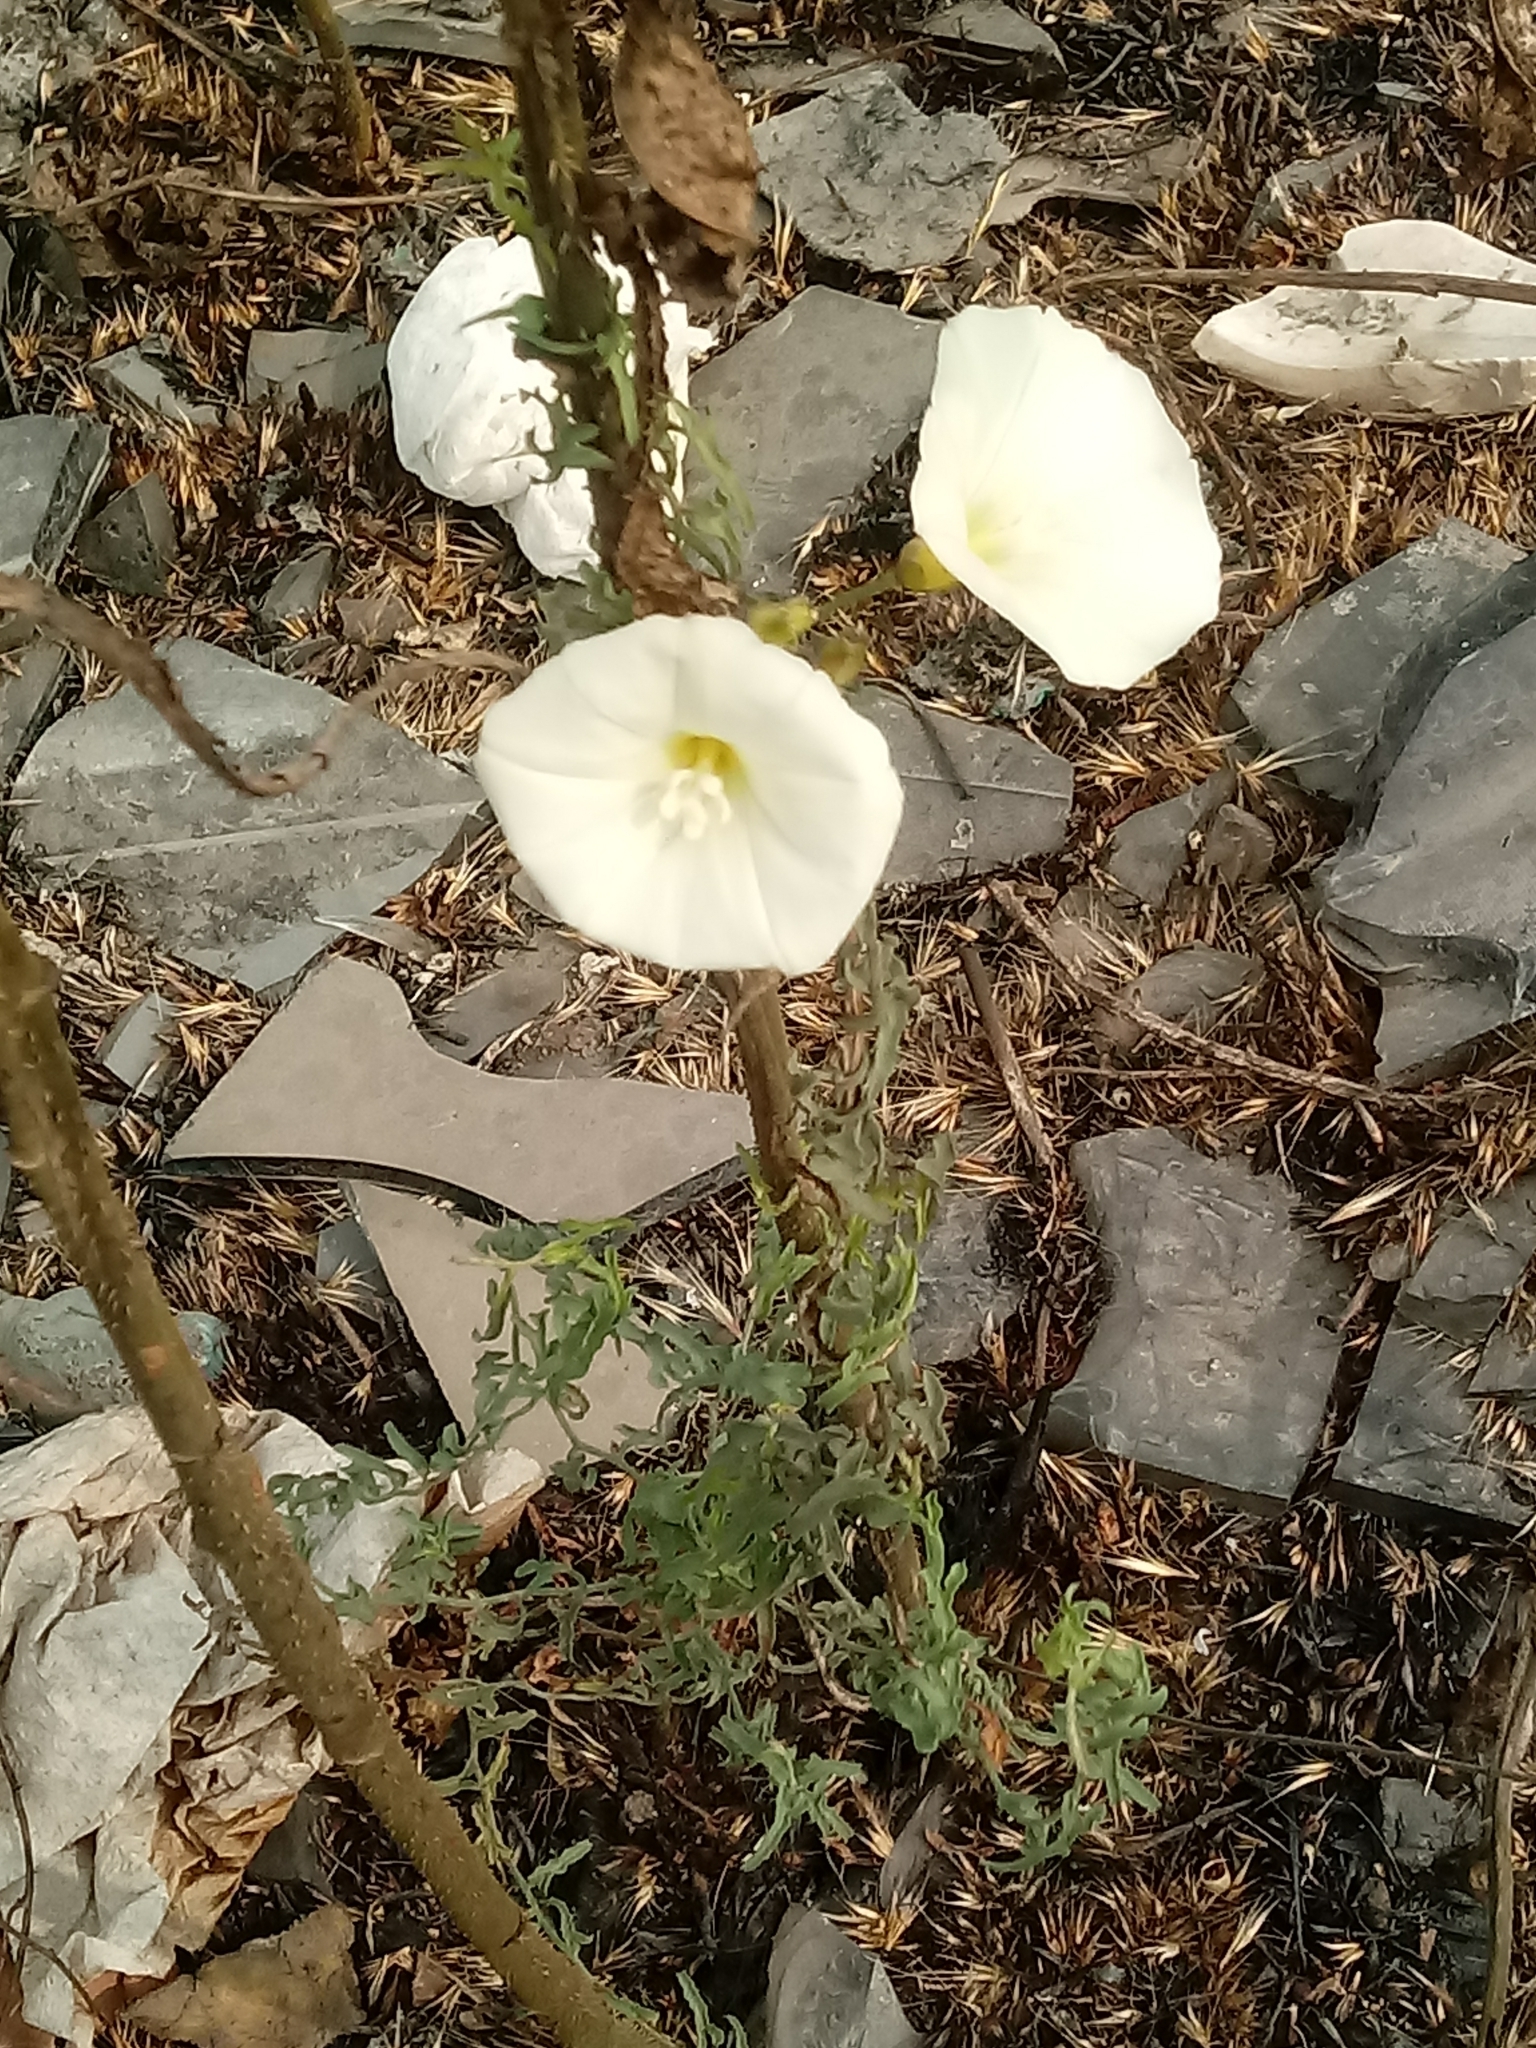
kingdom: Plantae
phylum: Tracheophyta
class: Magnoliopsida
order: Solanales
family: Convolvulaceae
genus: Calystegia
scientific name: Calystegia macrostegia
